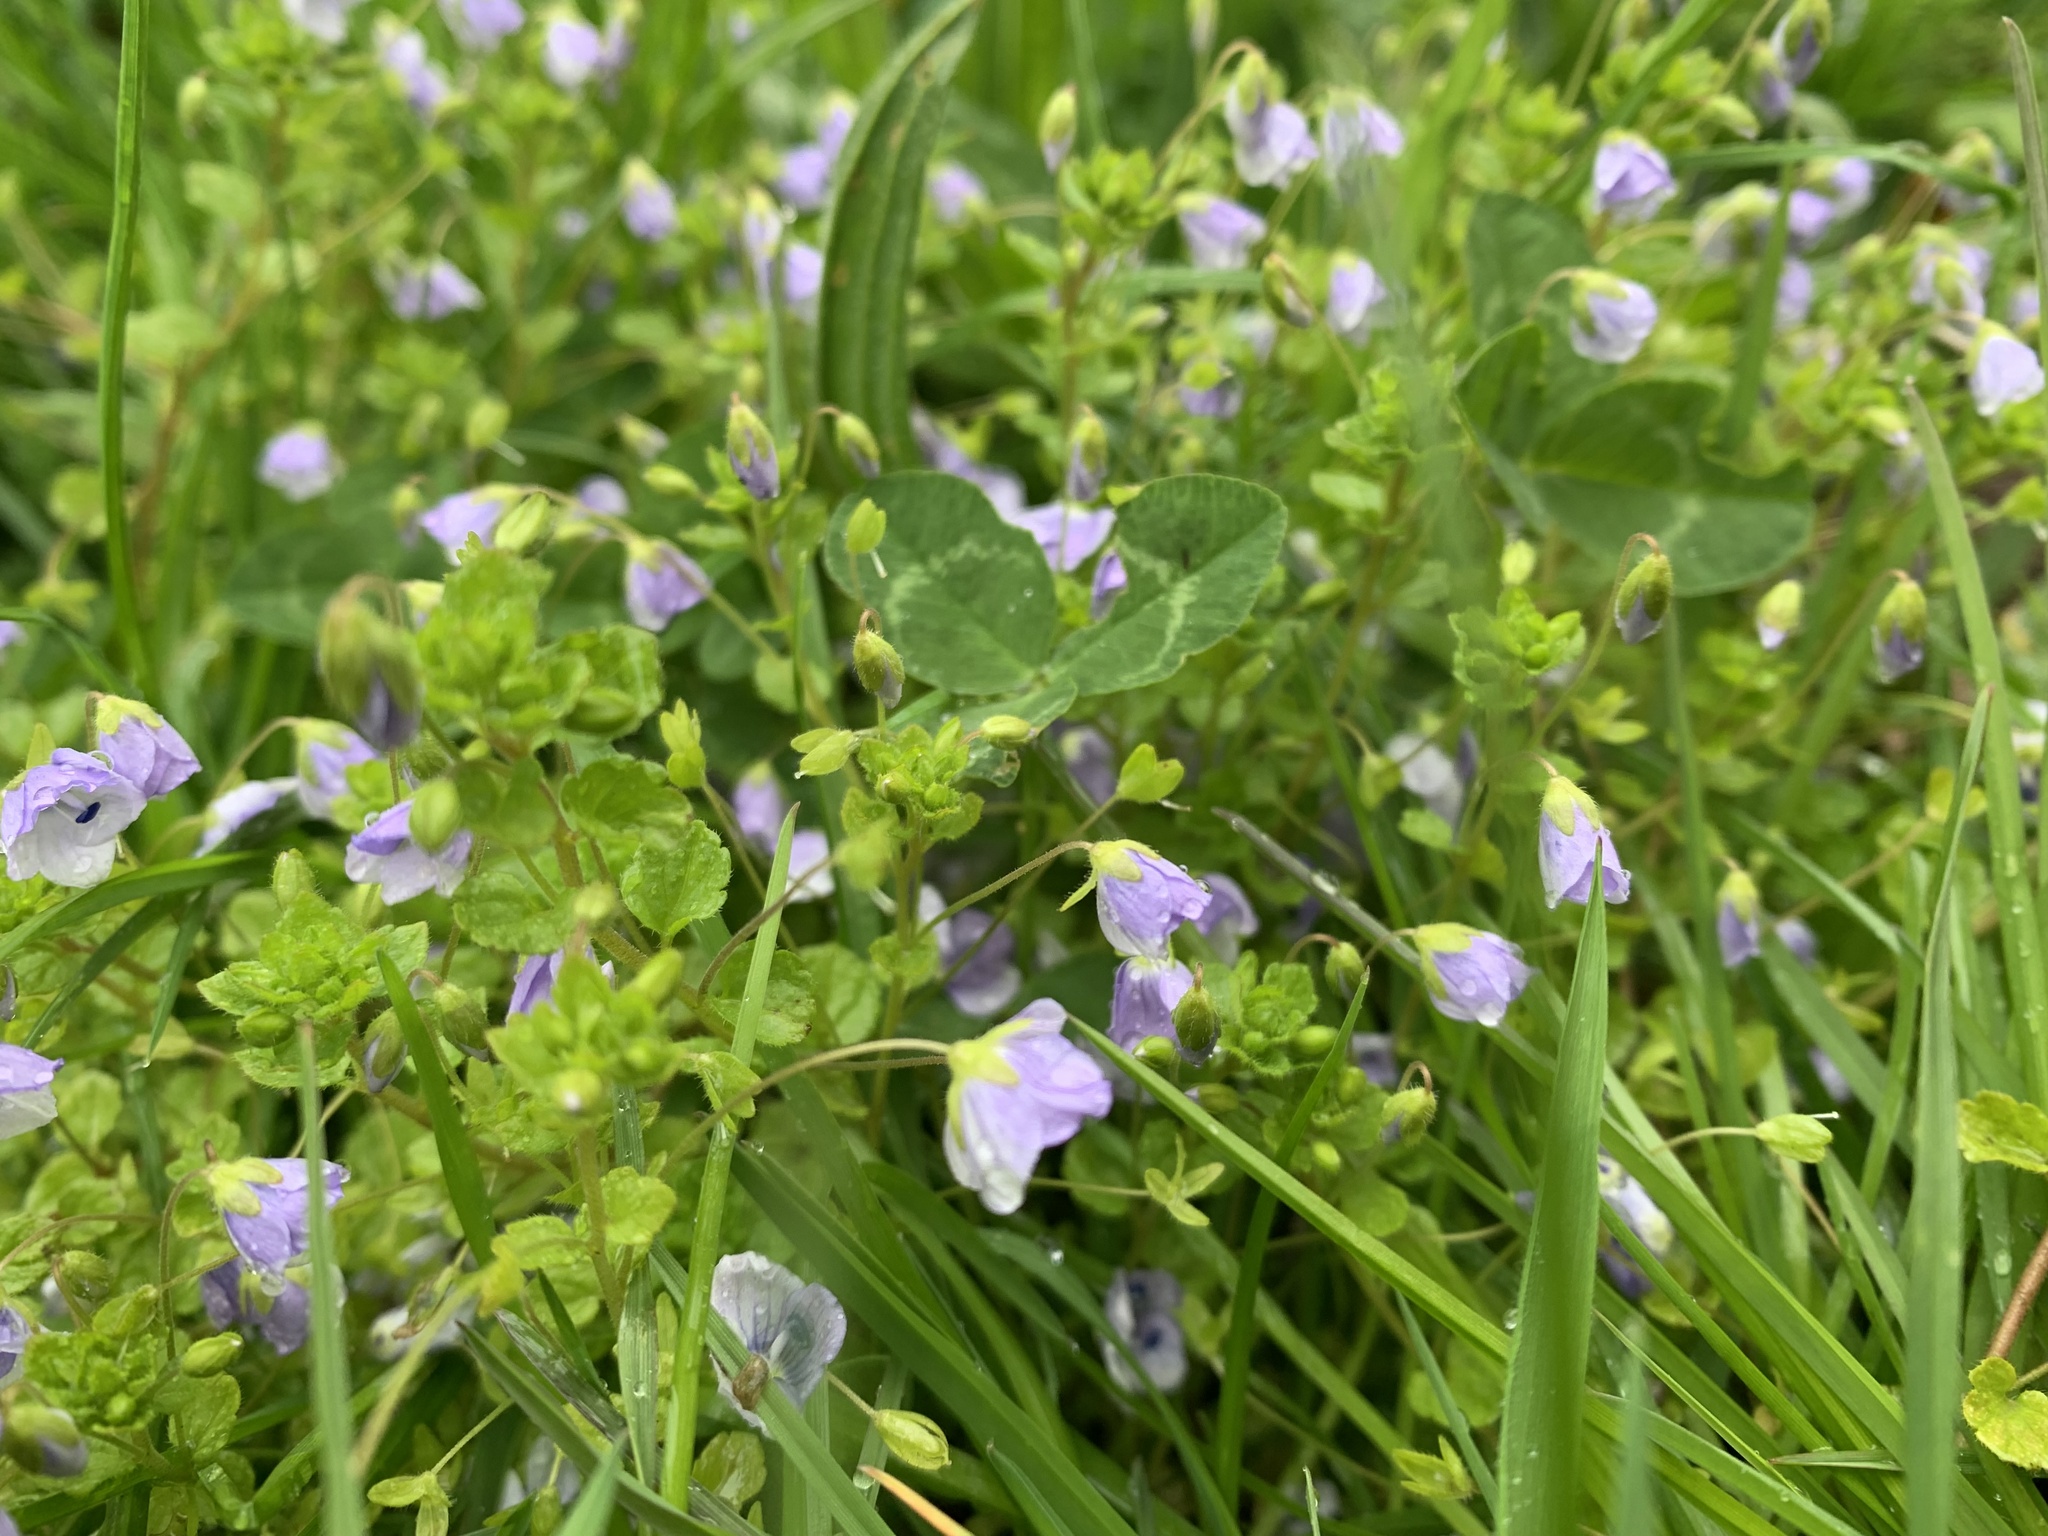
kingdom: Plantae
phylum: Tracheophyta
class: Magnoliopsida
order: Lamiales
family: Plantaginaceae
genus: Veronica
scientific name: Veronica filiformis
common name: Slender speedwell
